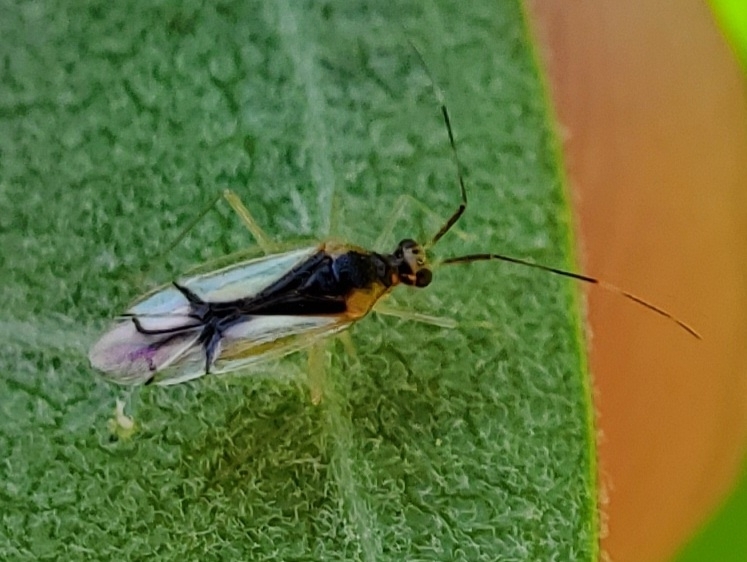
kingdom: Animalia
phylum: Arthropoda
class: Insecta
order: Hemiptera
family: Miridae
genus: Hyaliodes
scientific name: Hyaliodes vitripennis
